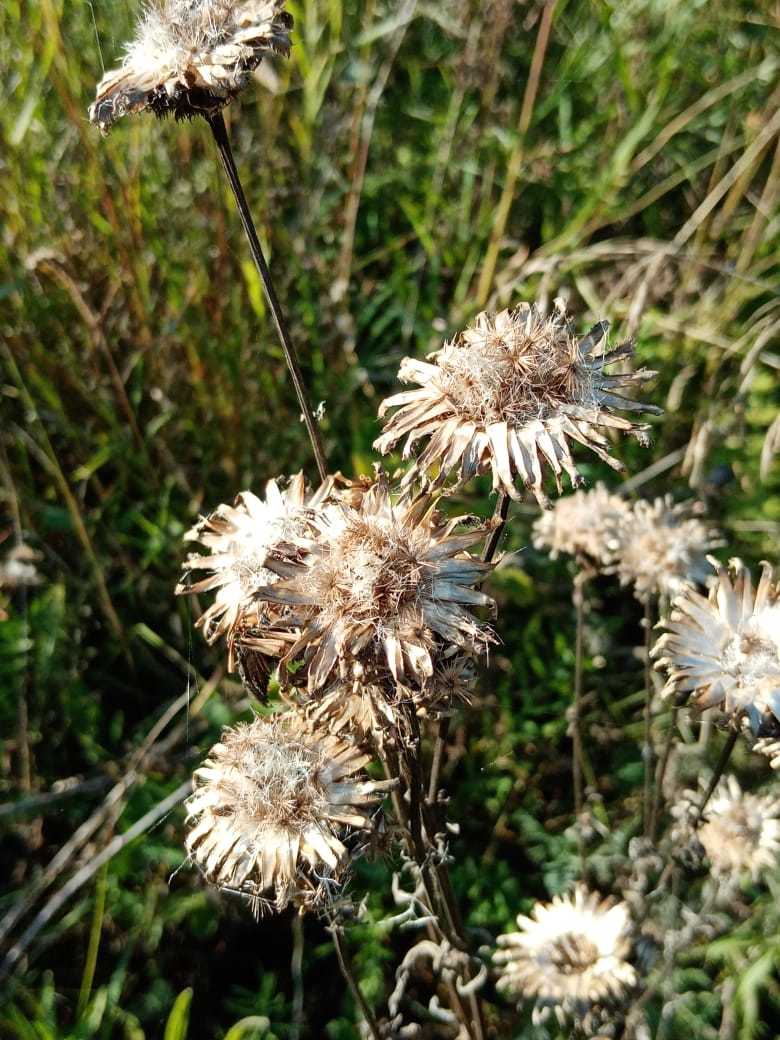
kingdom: Plantae
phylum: Tracheophyta
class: Magnoliopsida
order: Asterales
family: Asteraceae
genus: Centaurea
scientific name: Centaurea scabiosa
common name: Greater knapweed
